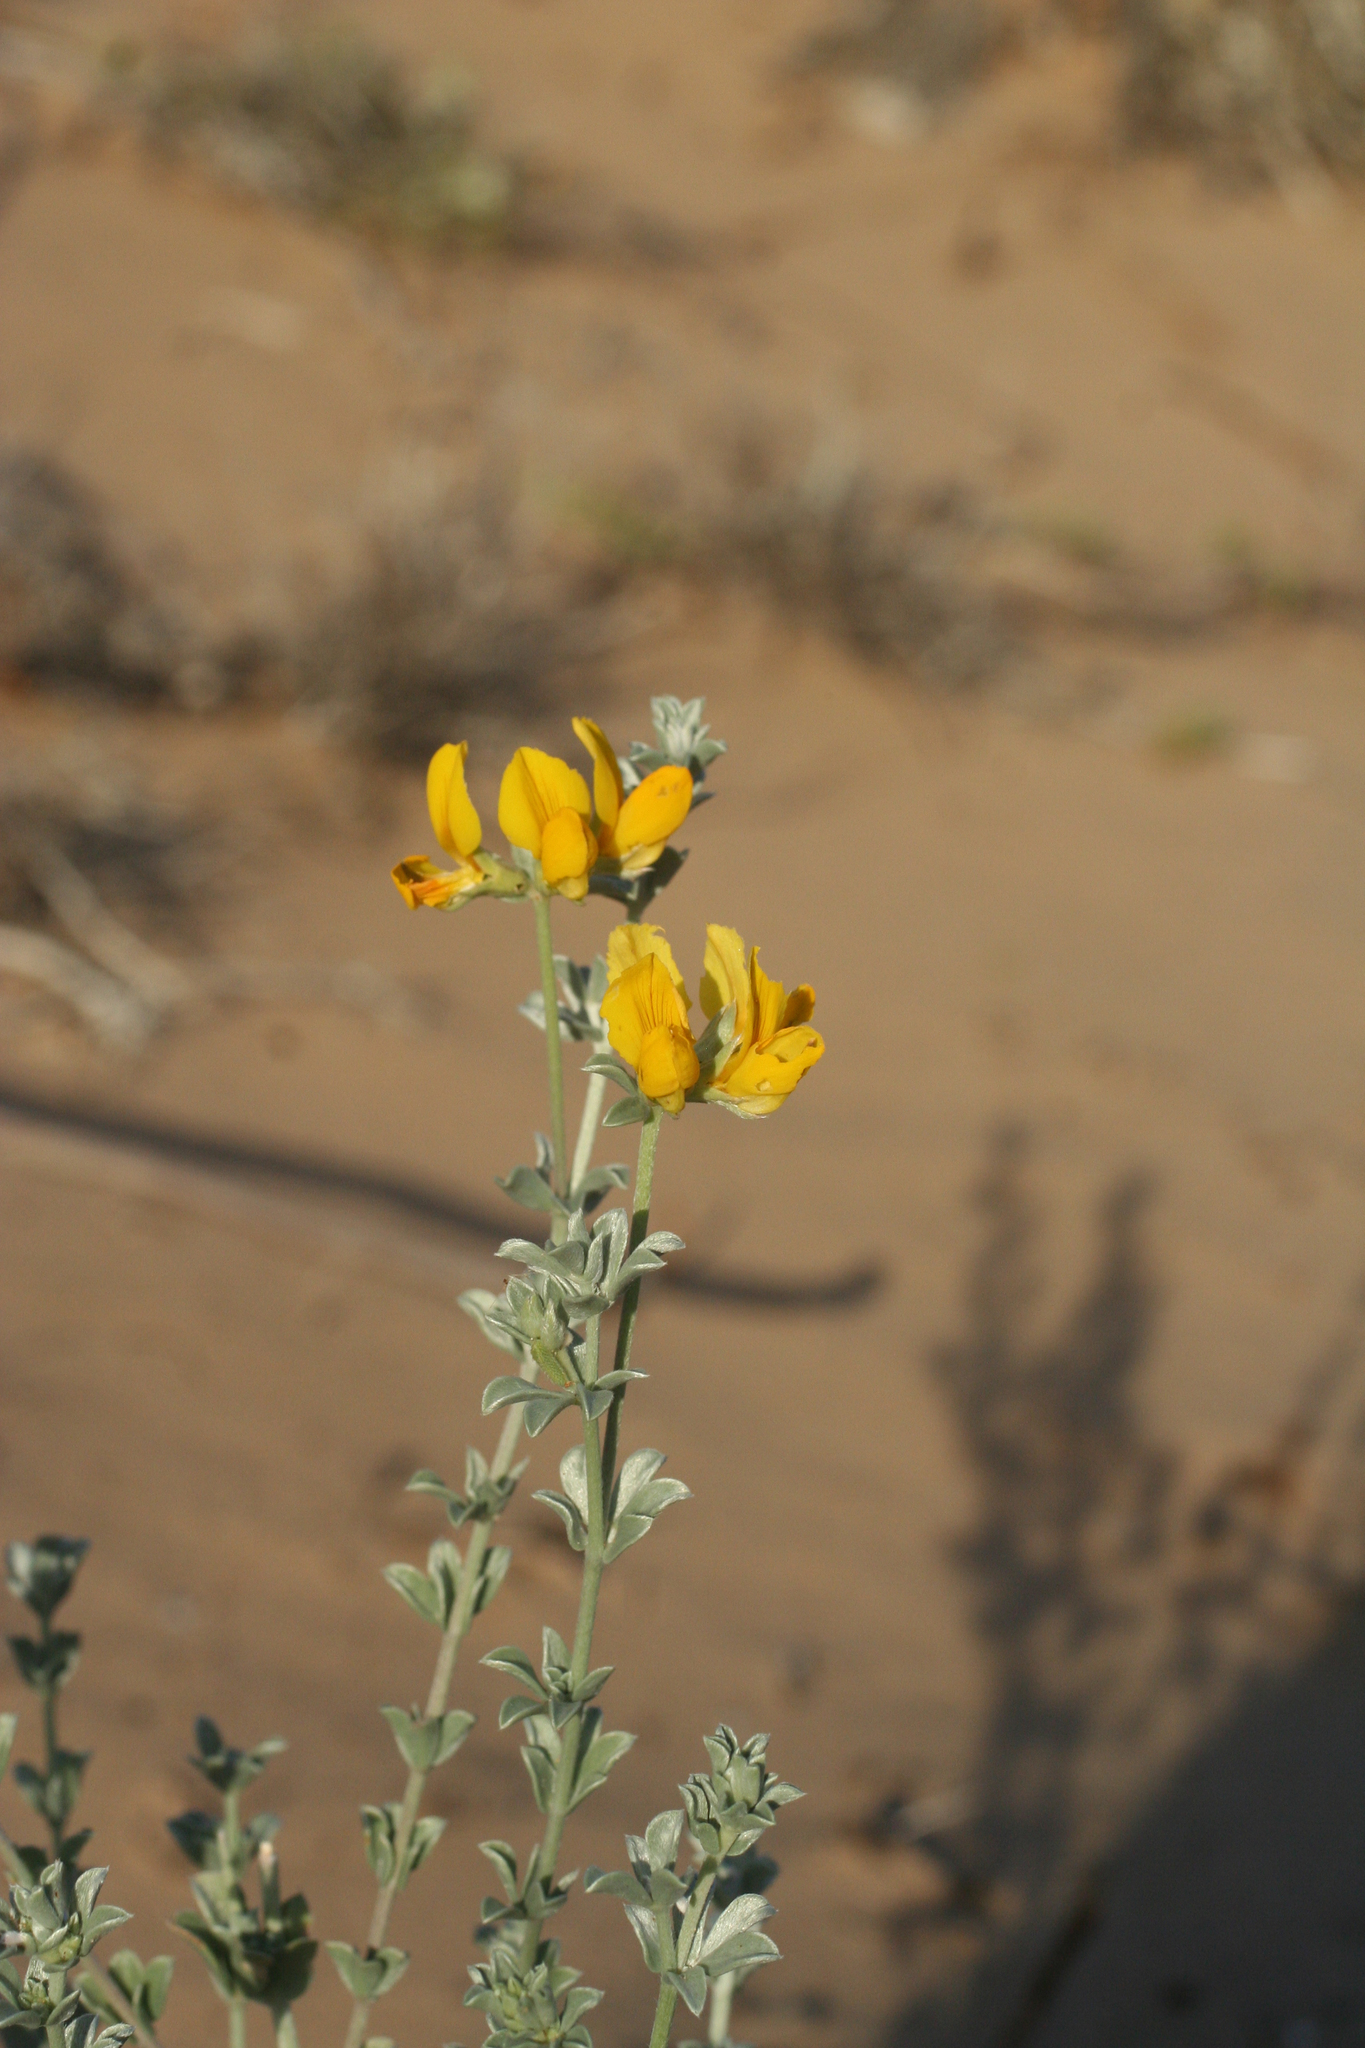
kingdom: Plantae
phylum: Tracheophyta
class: Magnoliopsida
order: Fabales
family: Fabaceae
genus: Lotus
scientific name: Lotus creticus
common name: Cretan bird's-foot trefoil
